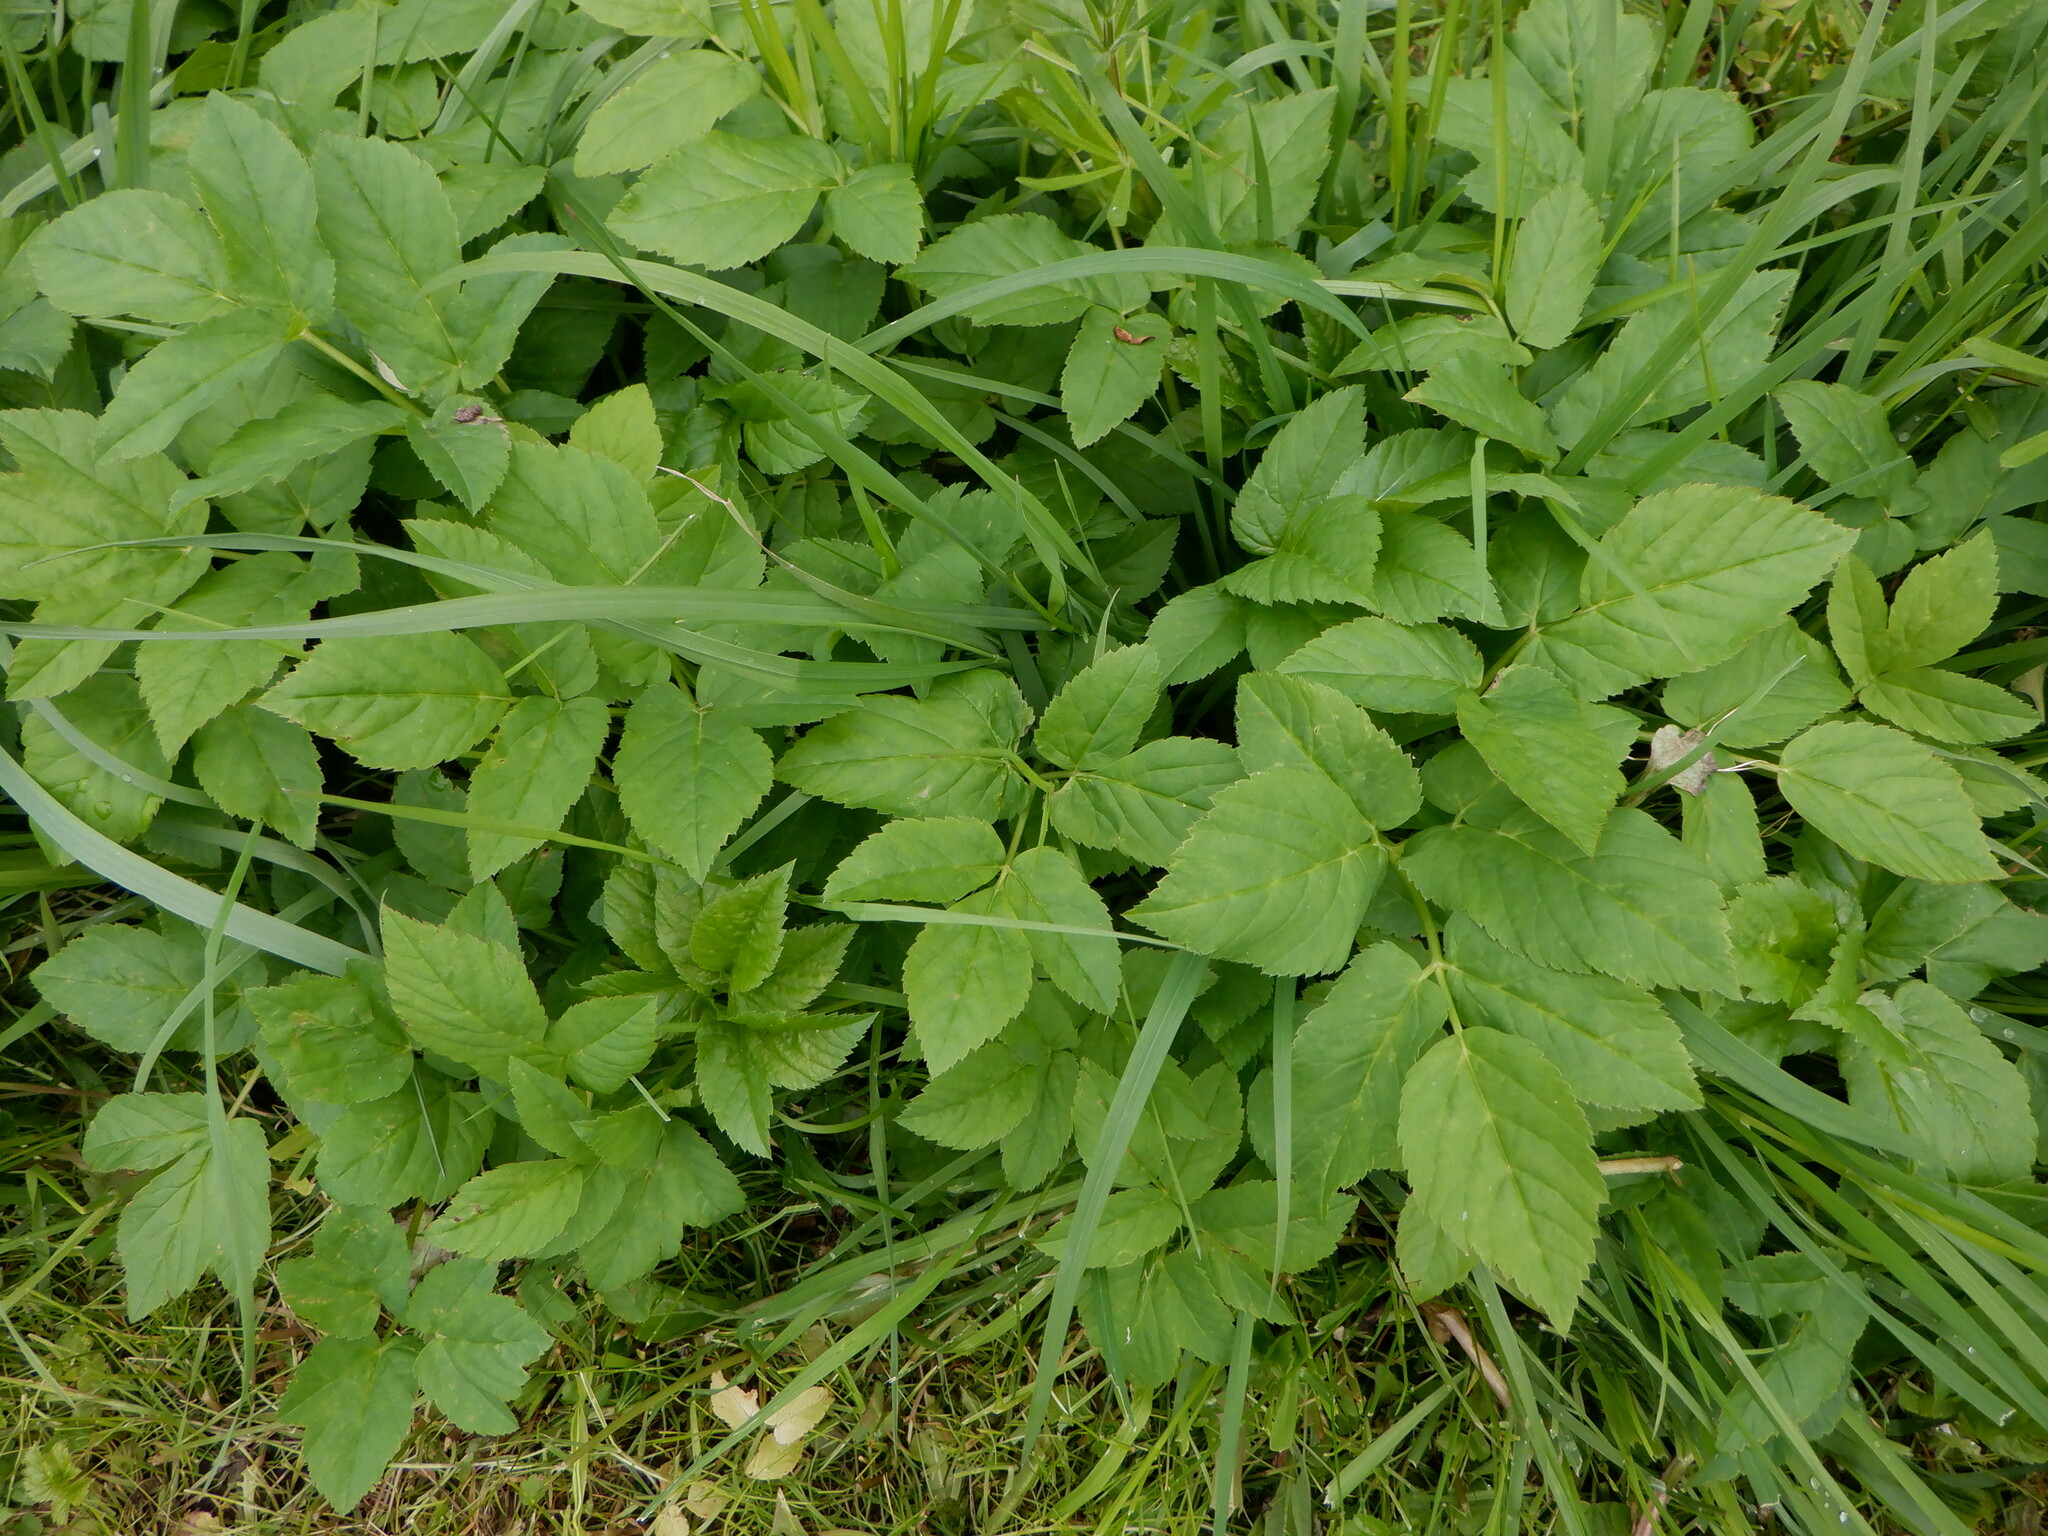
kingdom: Plantae
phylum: Tracheophyta
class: Magnoliopsida
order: Apiales
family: Apiaceae
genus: Aegopodium
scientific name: Aegopodium podagraria
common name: Ground-elder
